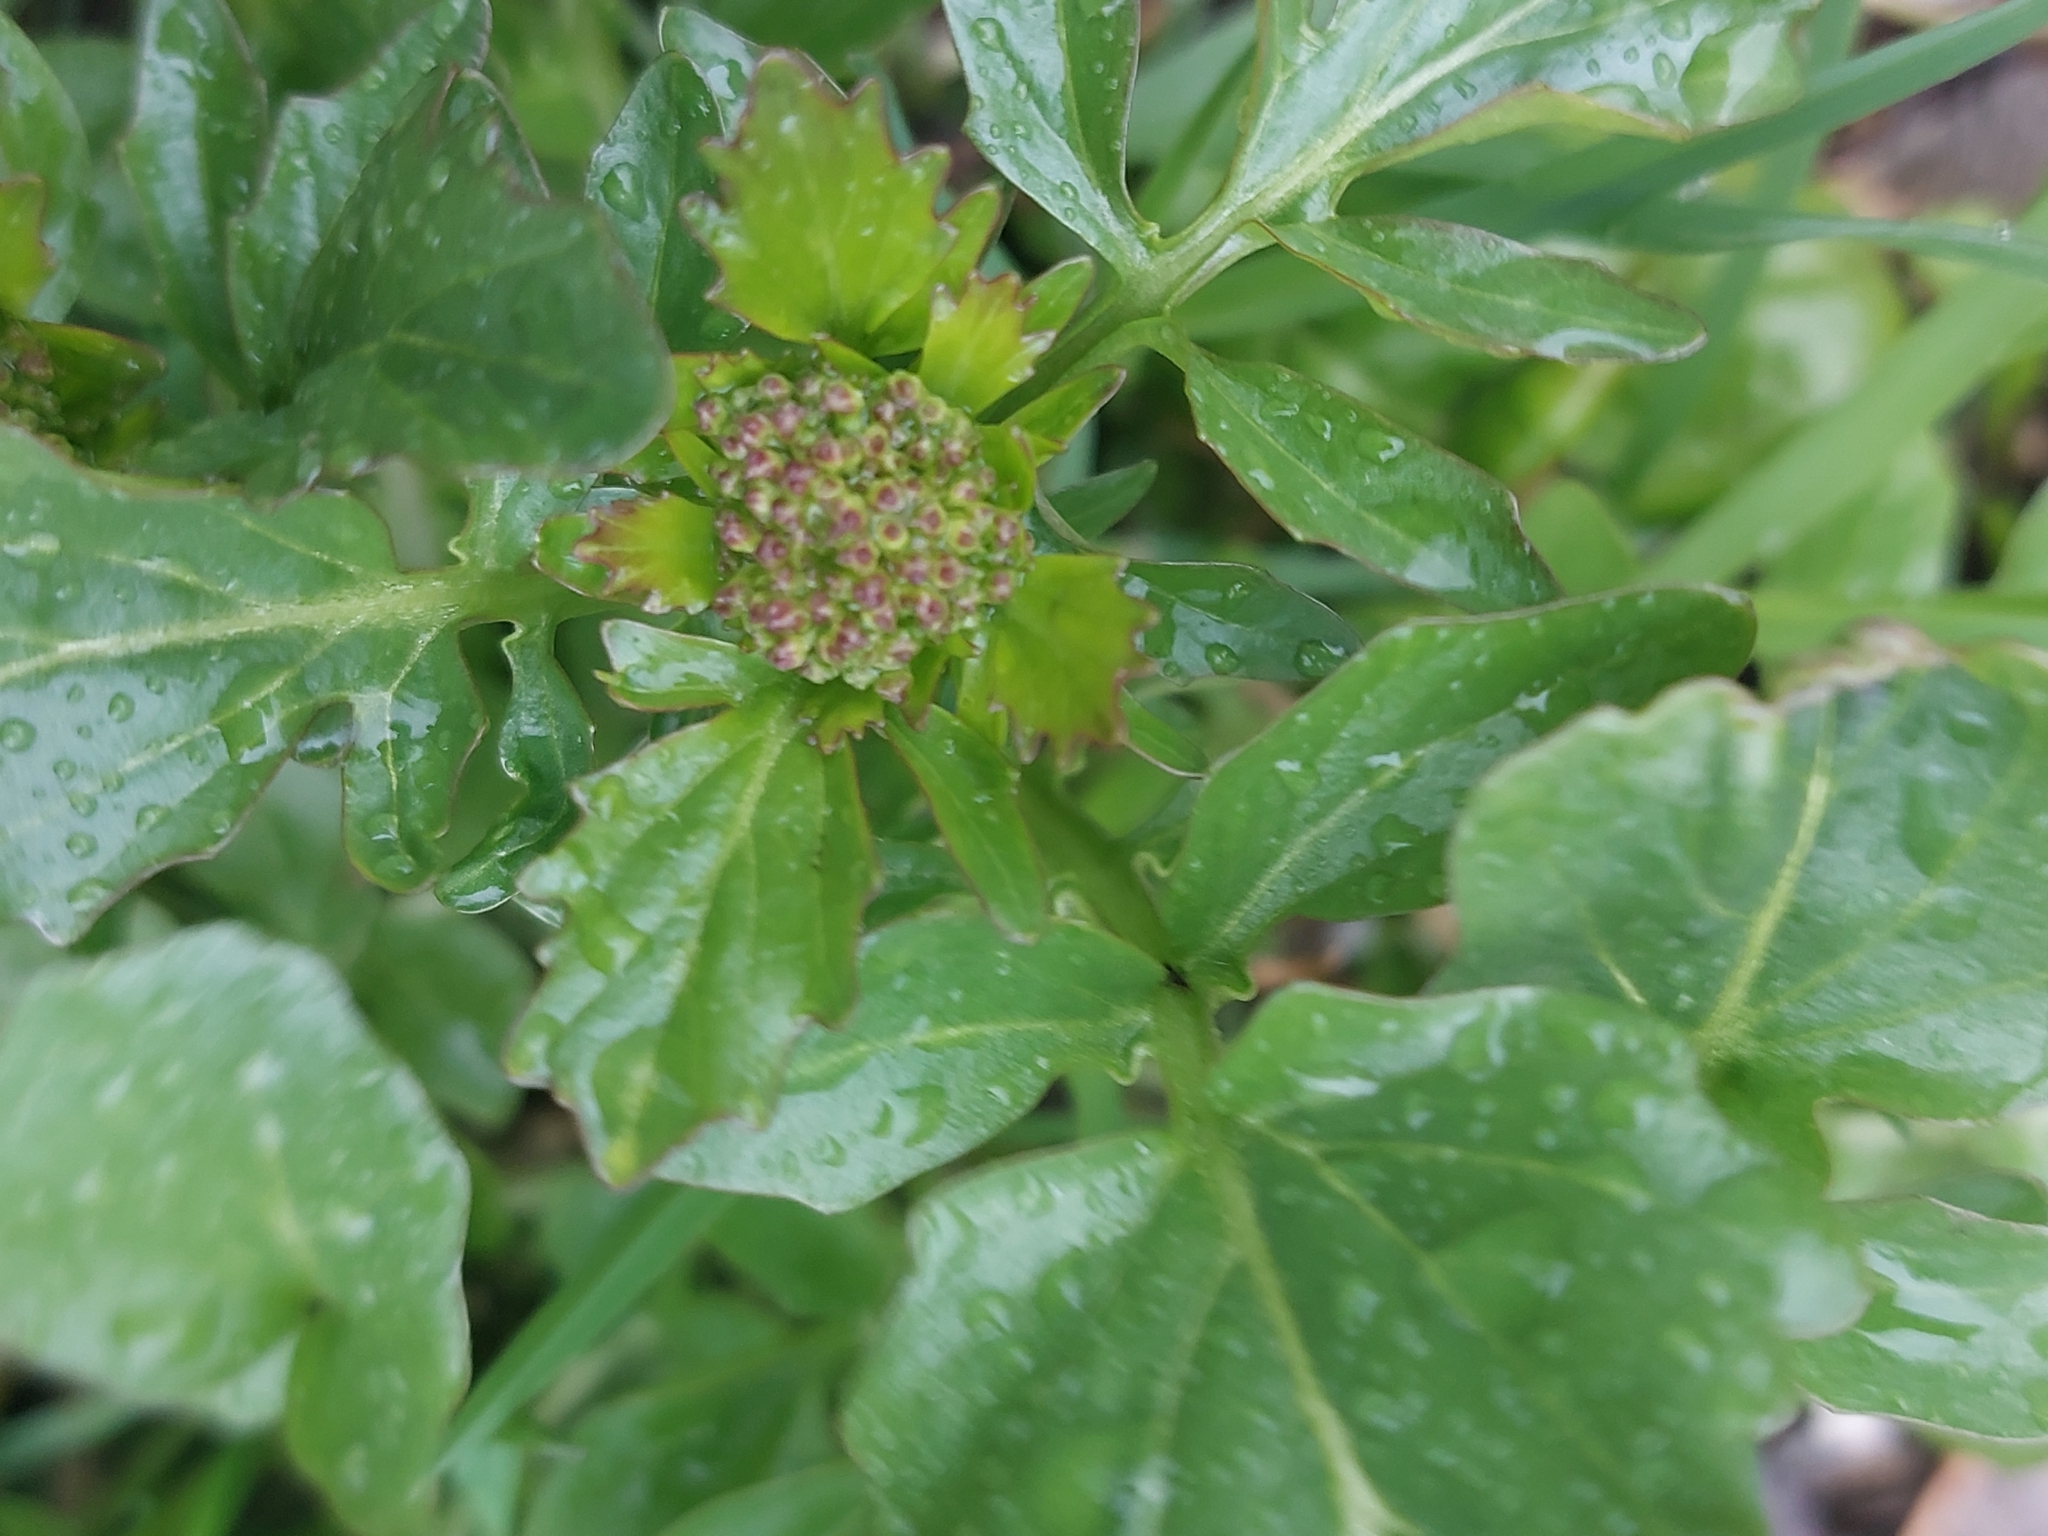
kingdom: Plantae
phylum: Tracheophyta
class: Magnoliopsida
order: Brassicales
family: Brassicaceae
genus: Barbarea
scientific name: Barbarea vulgaris
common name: Cressy-greens
